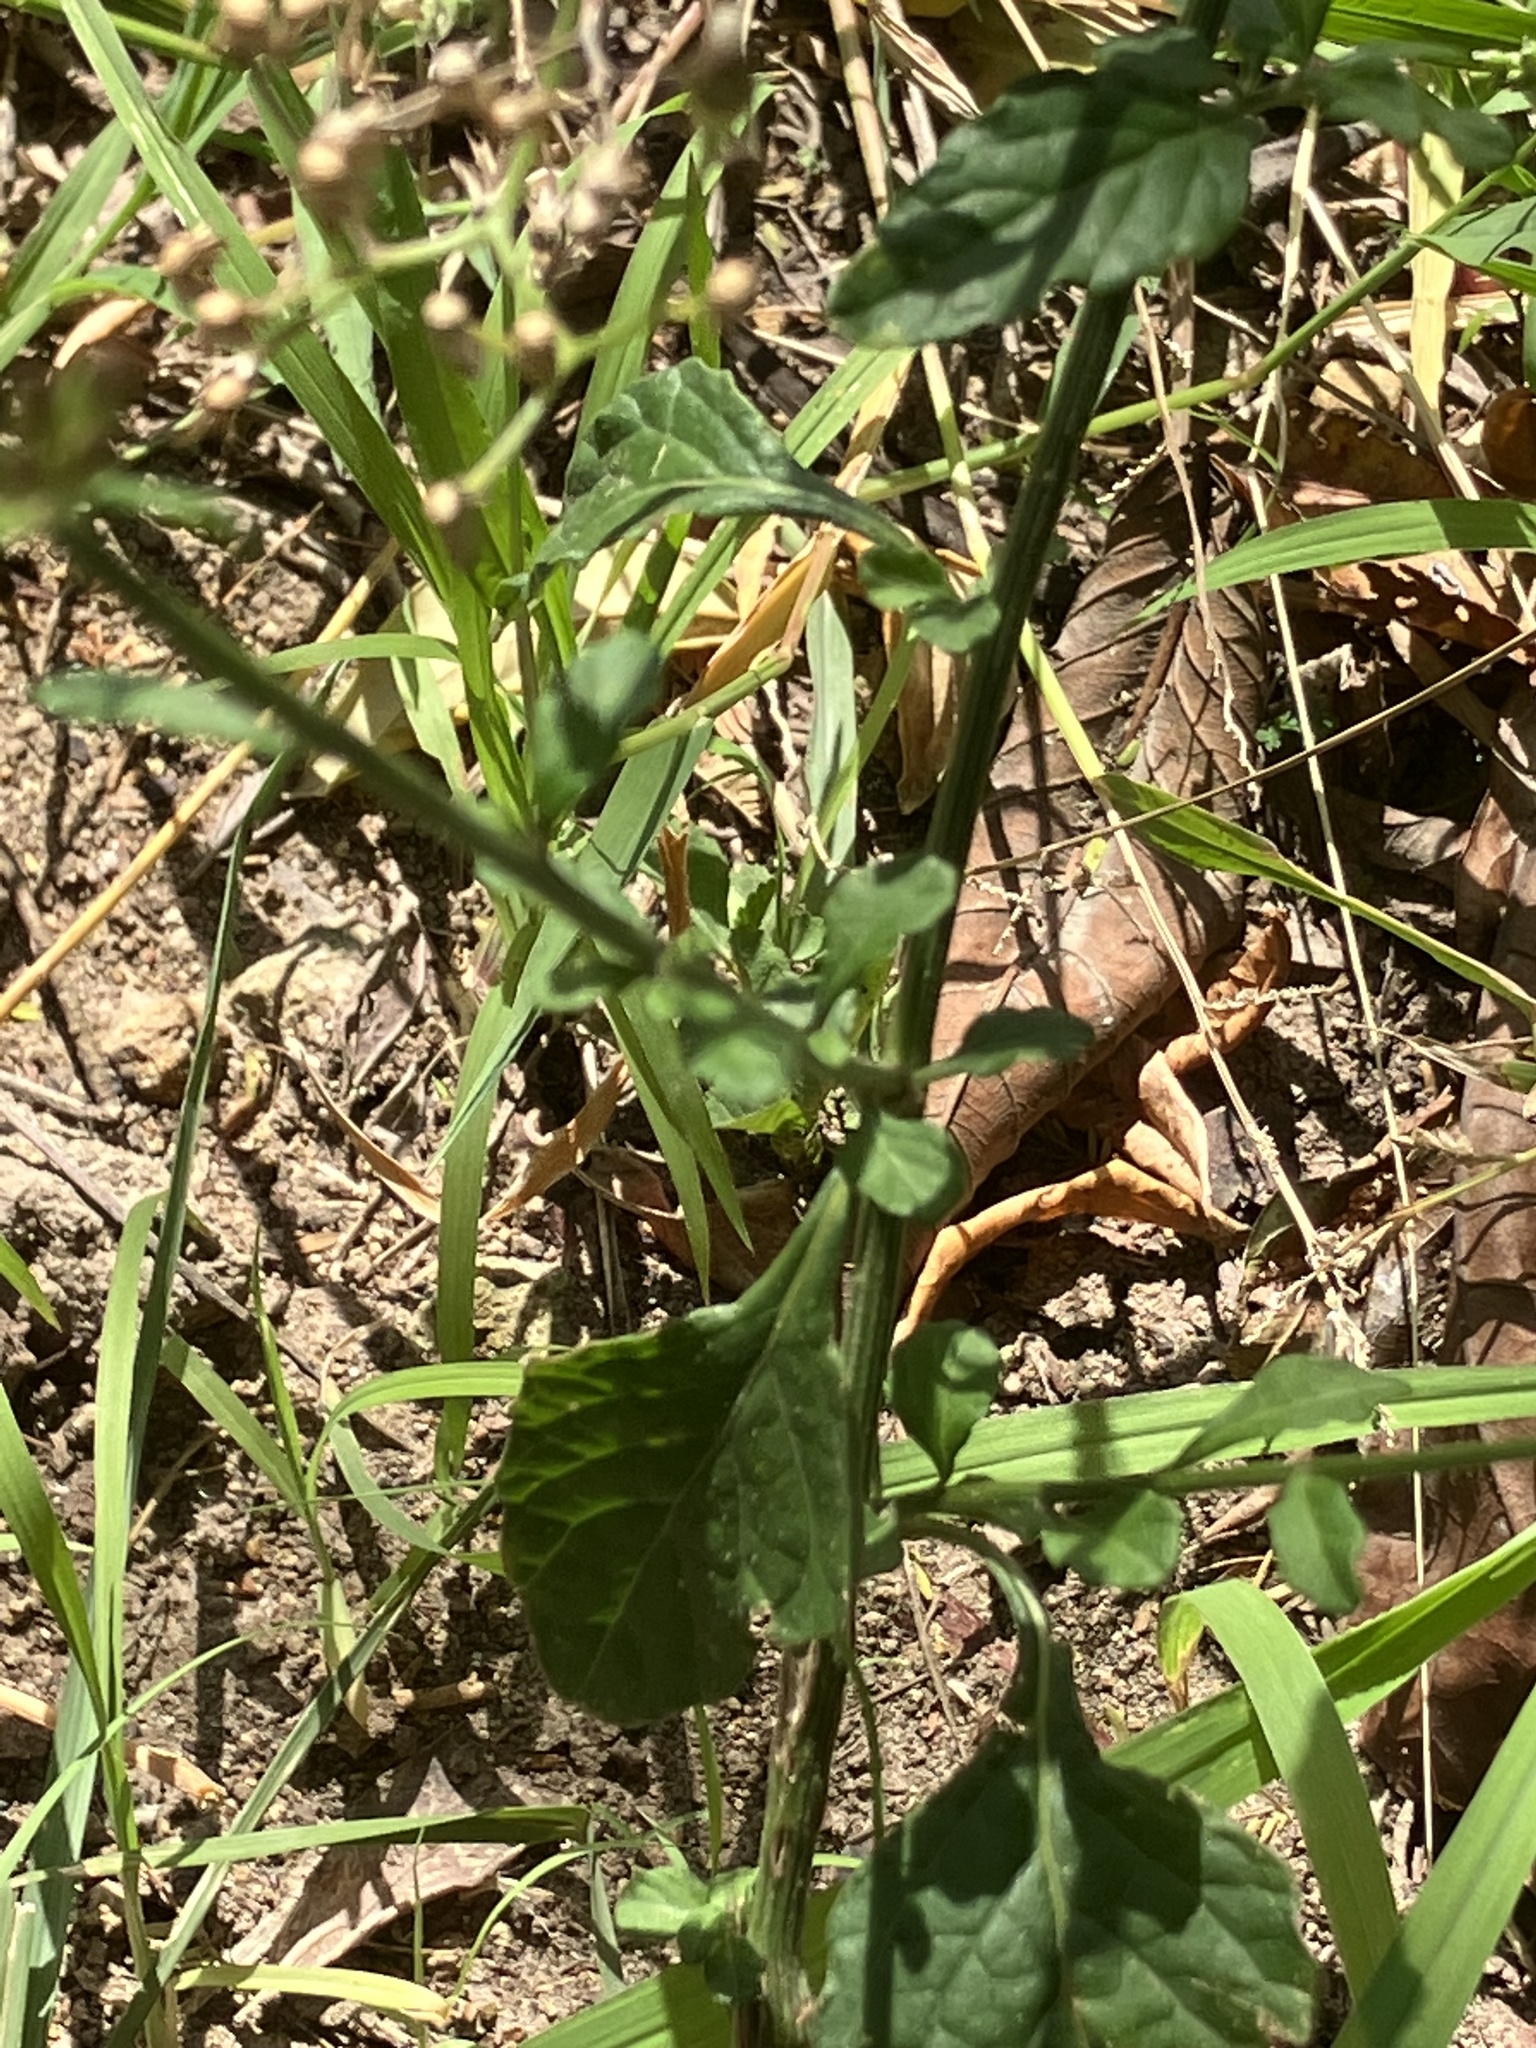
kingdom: Plantae
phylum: Tracheophyta
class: Magnoliopsida
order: Asterales
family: Asteraceae
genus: Cyanthillium
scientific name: Cyanthillium cinereum
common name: Little ironweed
